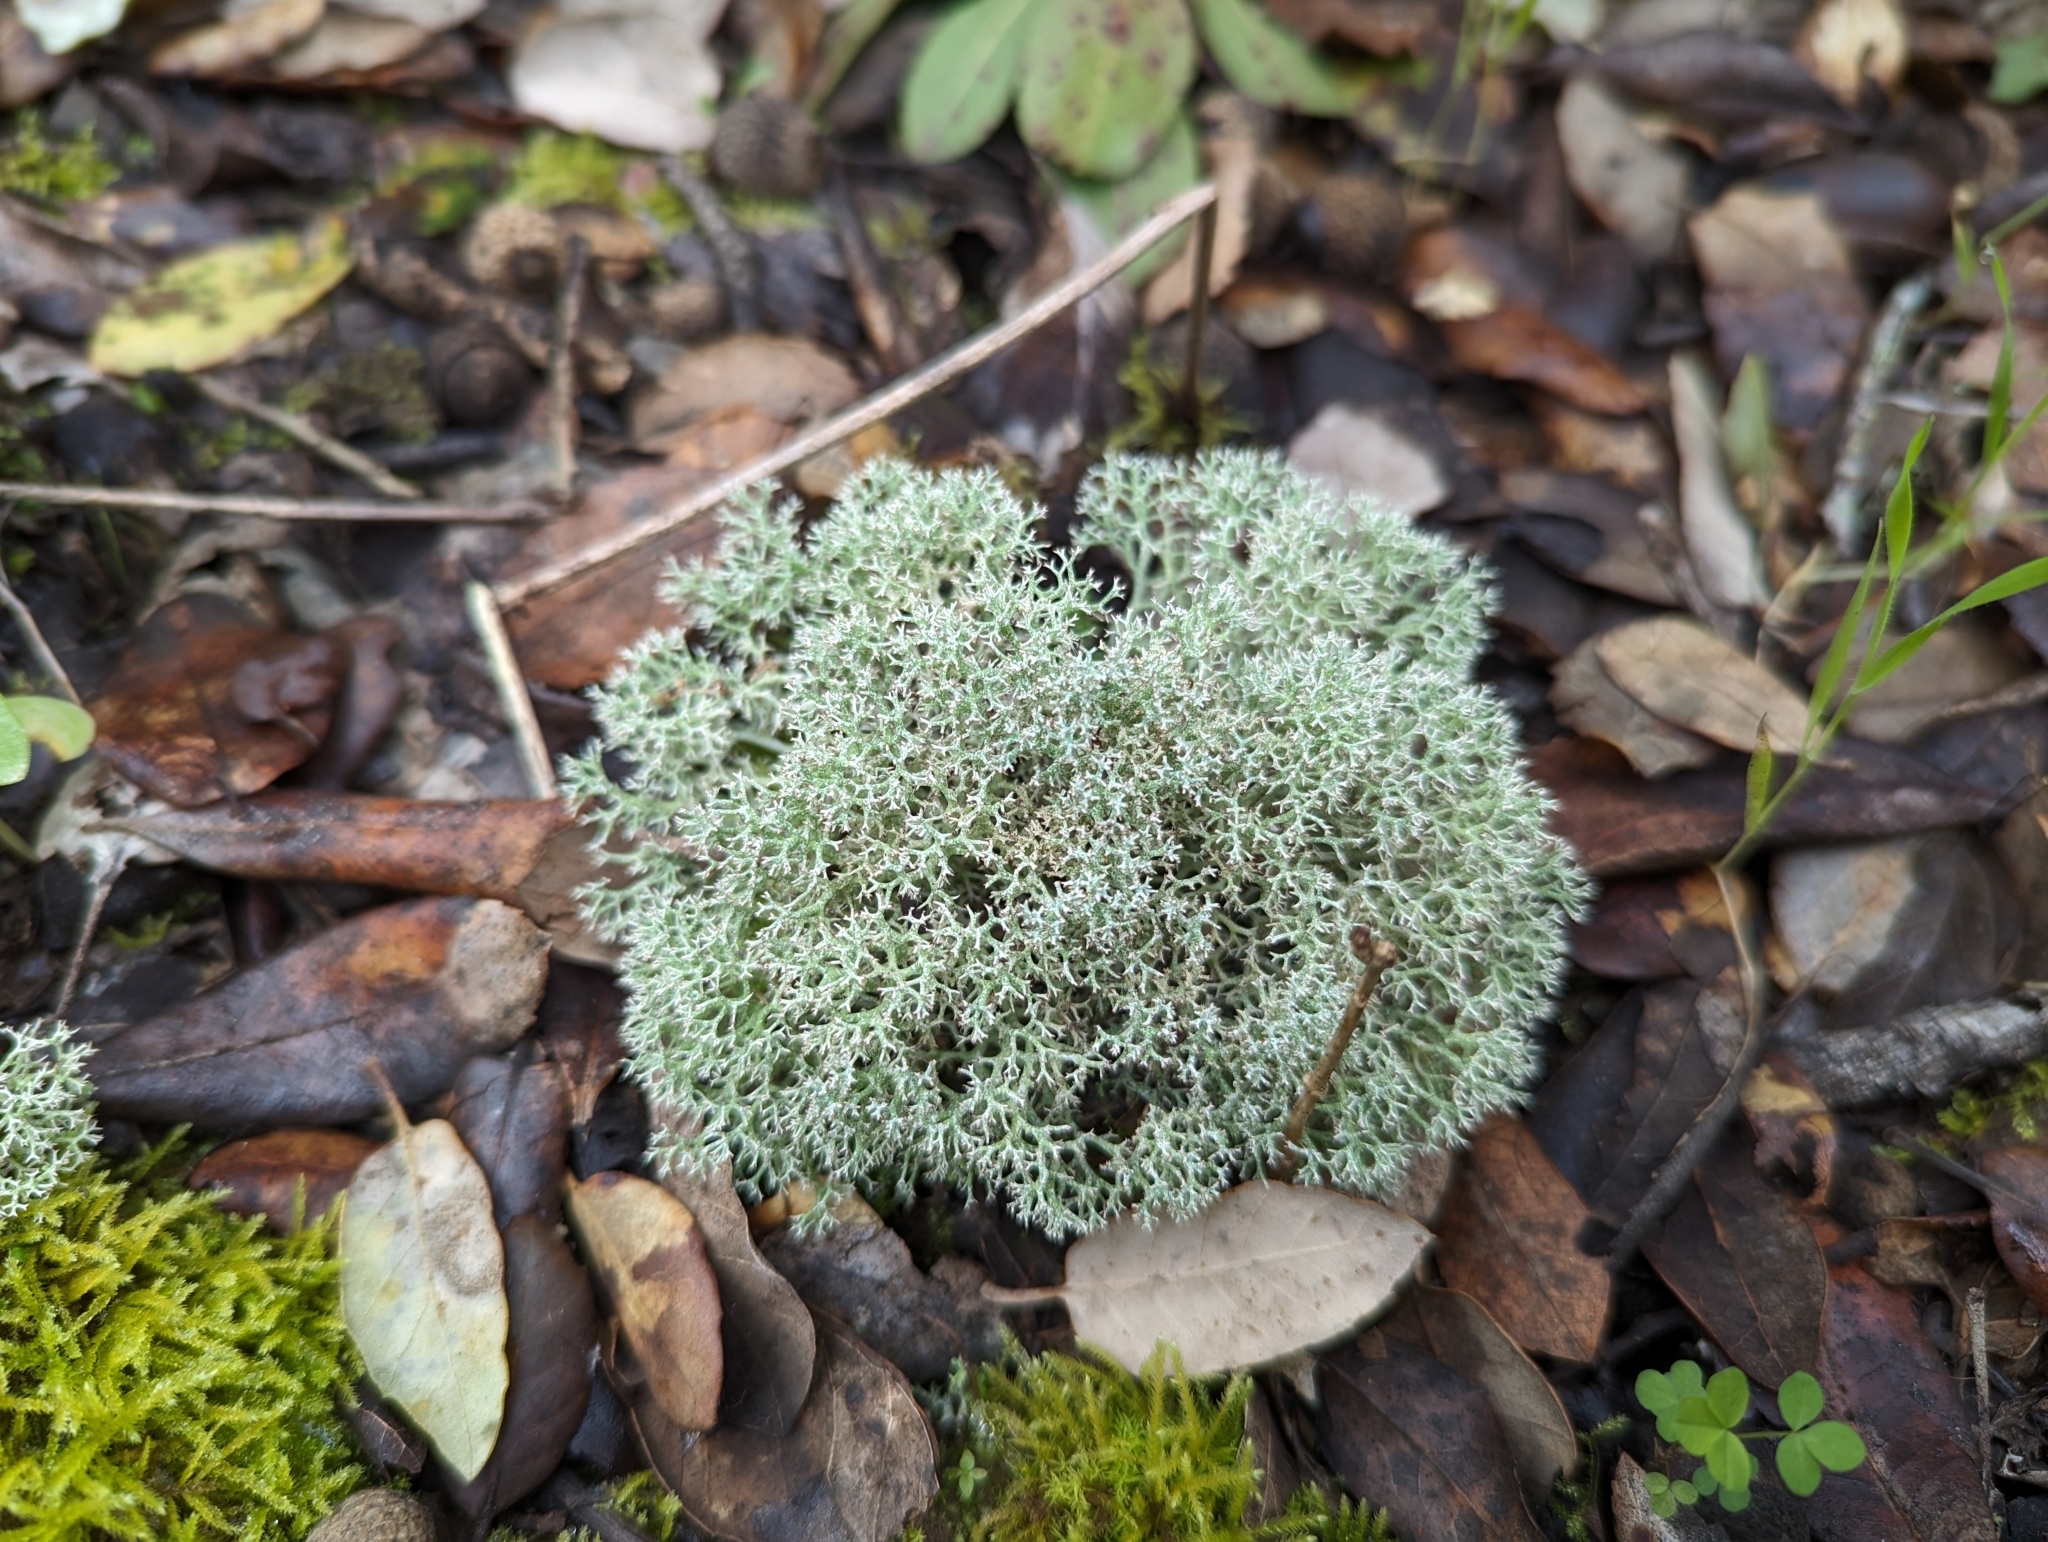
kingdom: Fungi
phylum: Ascomycota
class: Lecanoromycetes
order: Lecanorales
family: Cladoniaceae
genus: Cladonia
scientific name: Cladonia rangiformis
